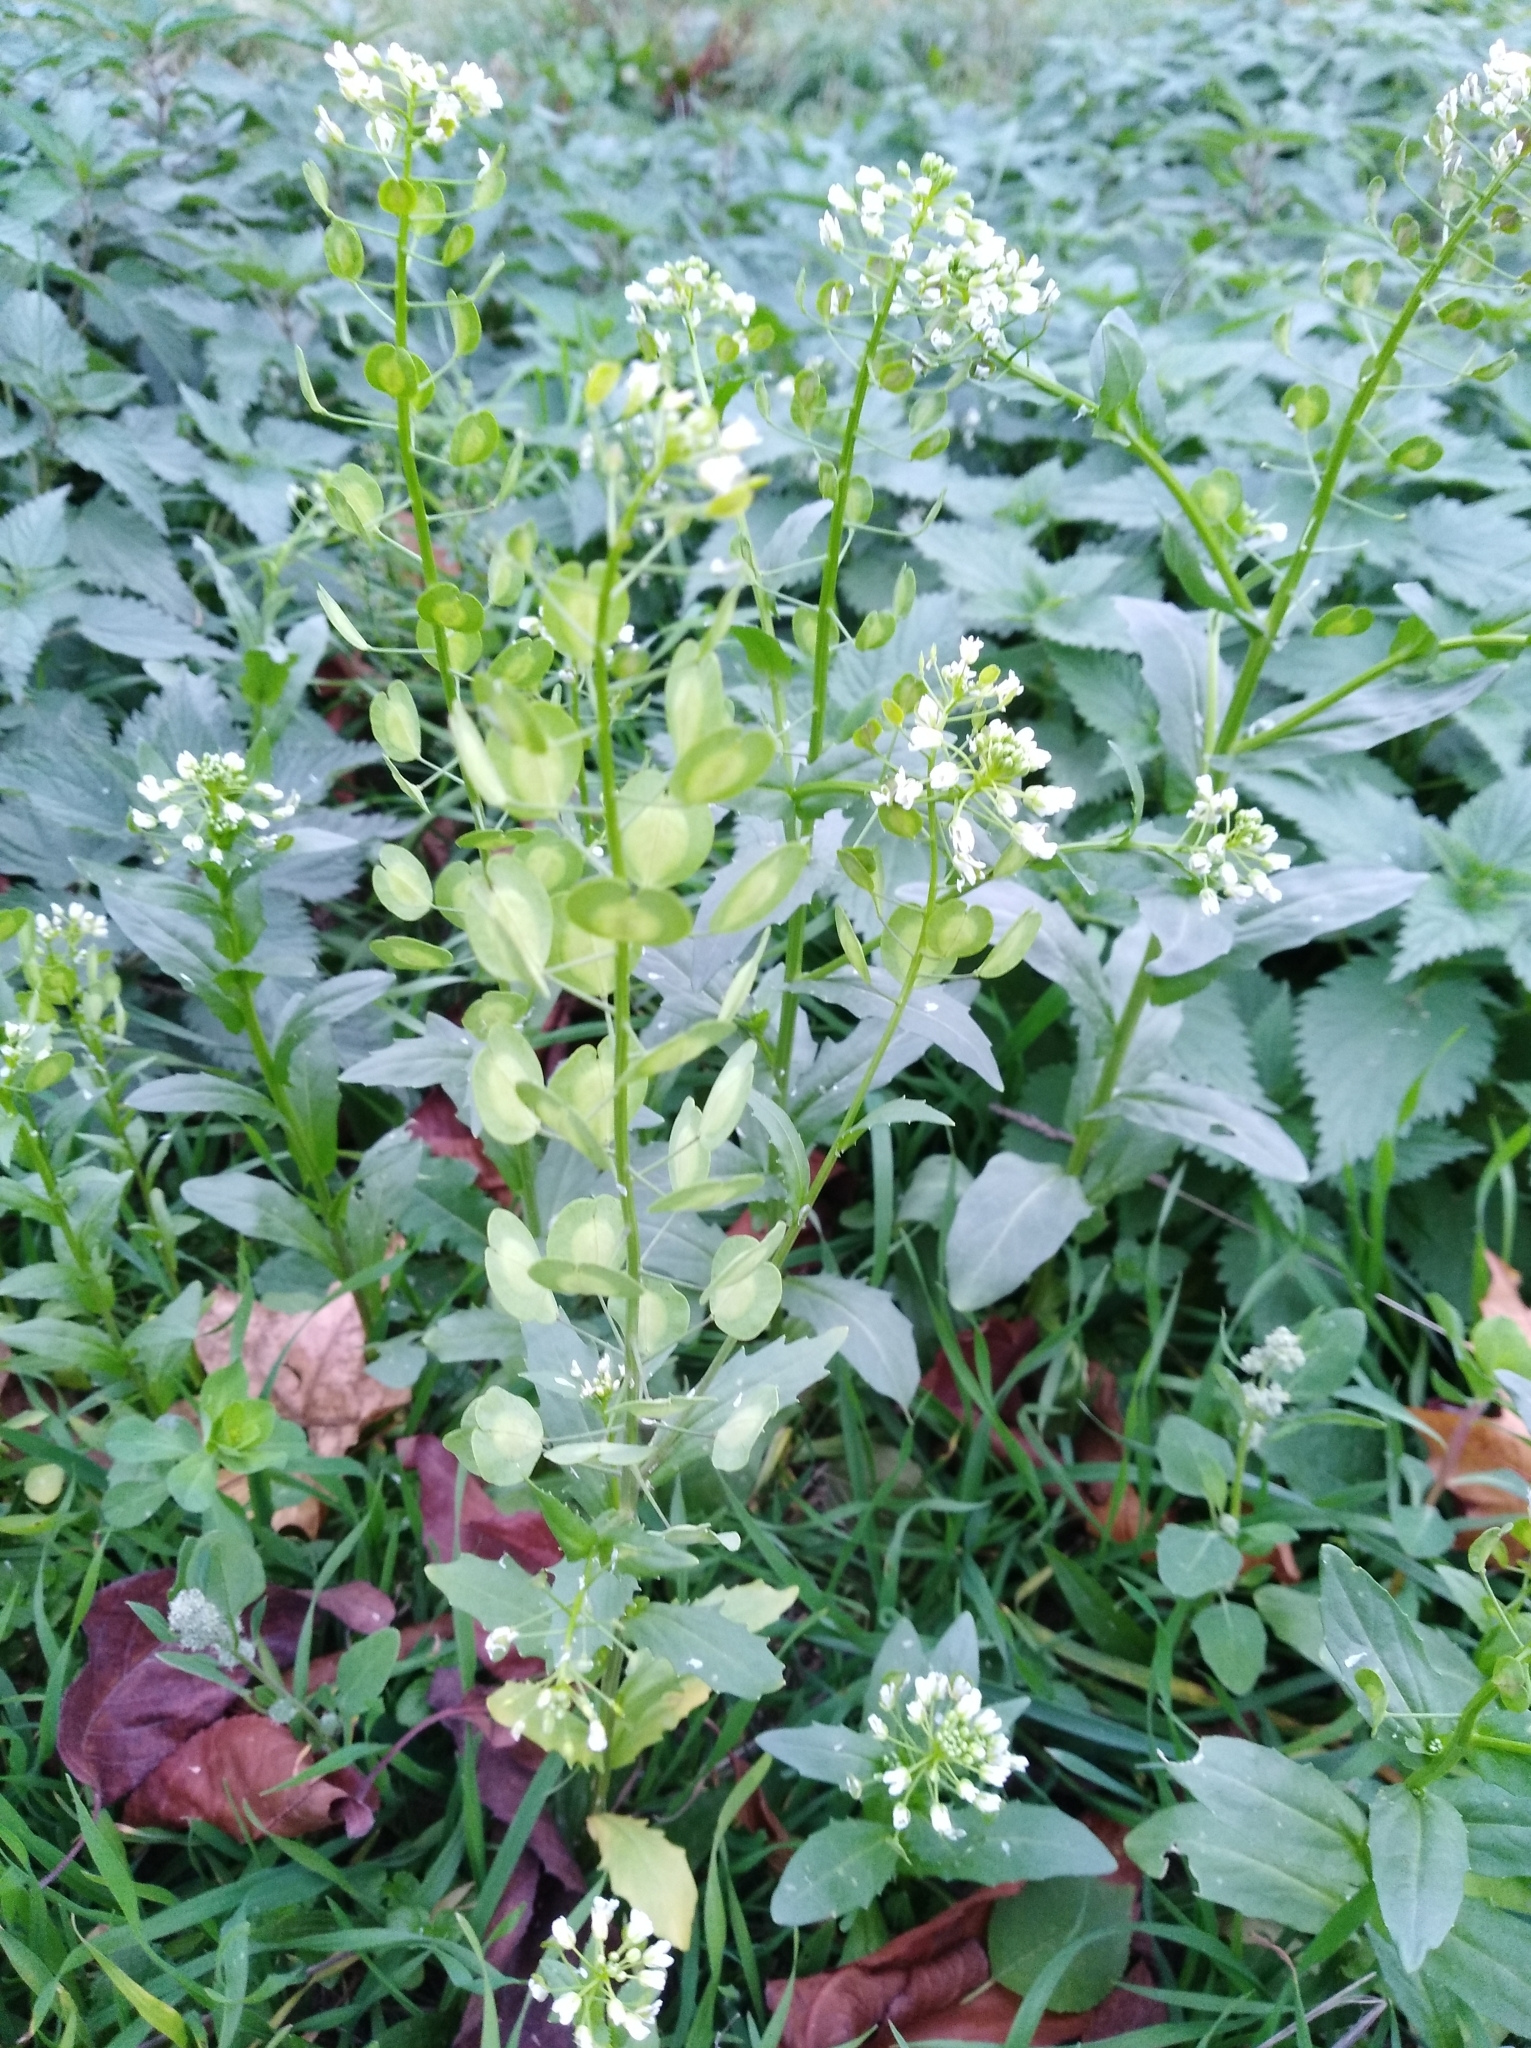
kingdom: Plantae
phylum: Tracheophyta
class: Magnoliopsida
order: Brassicales
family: Brassicaceae
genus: Thlaspi
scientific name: Thlaspi arvense
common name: Field pennycress
